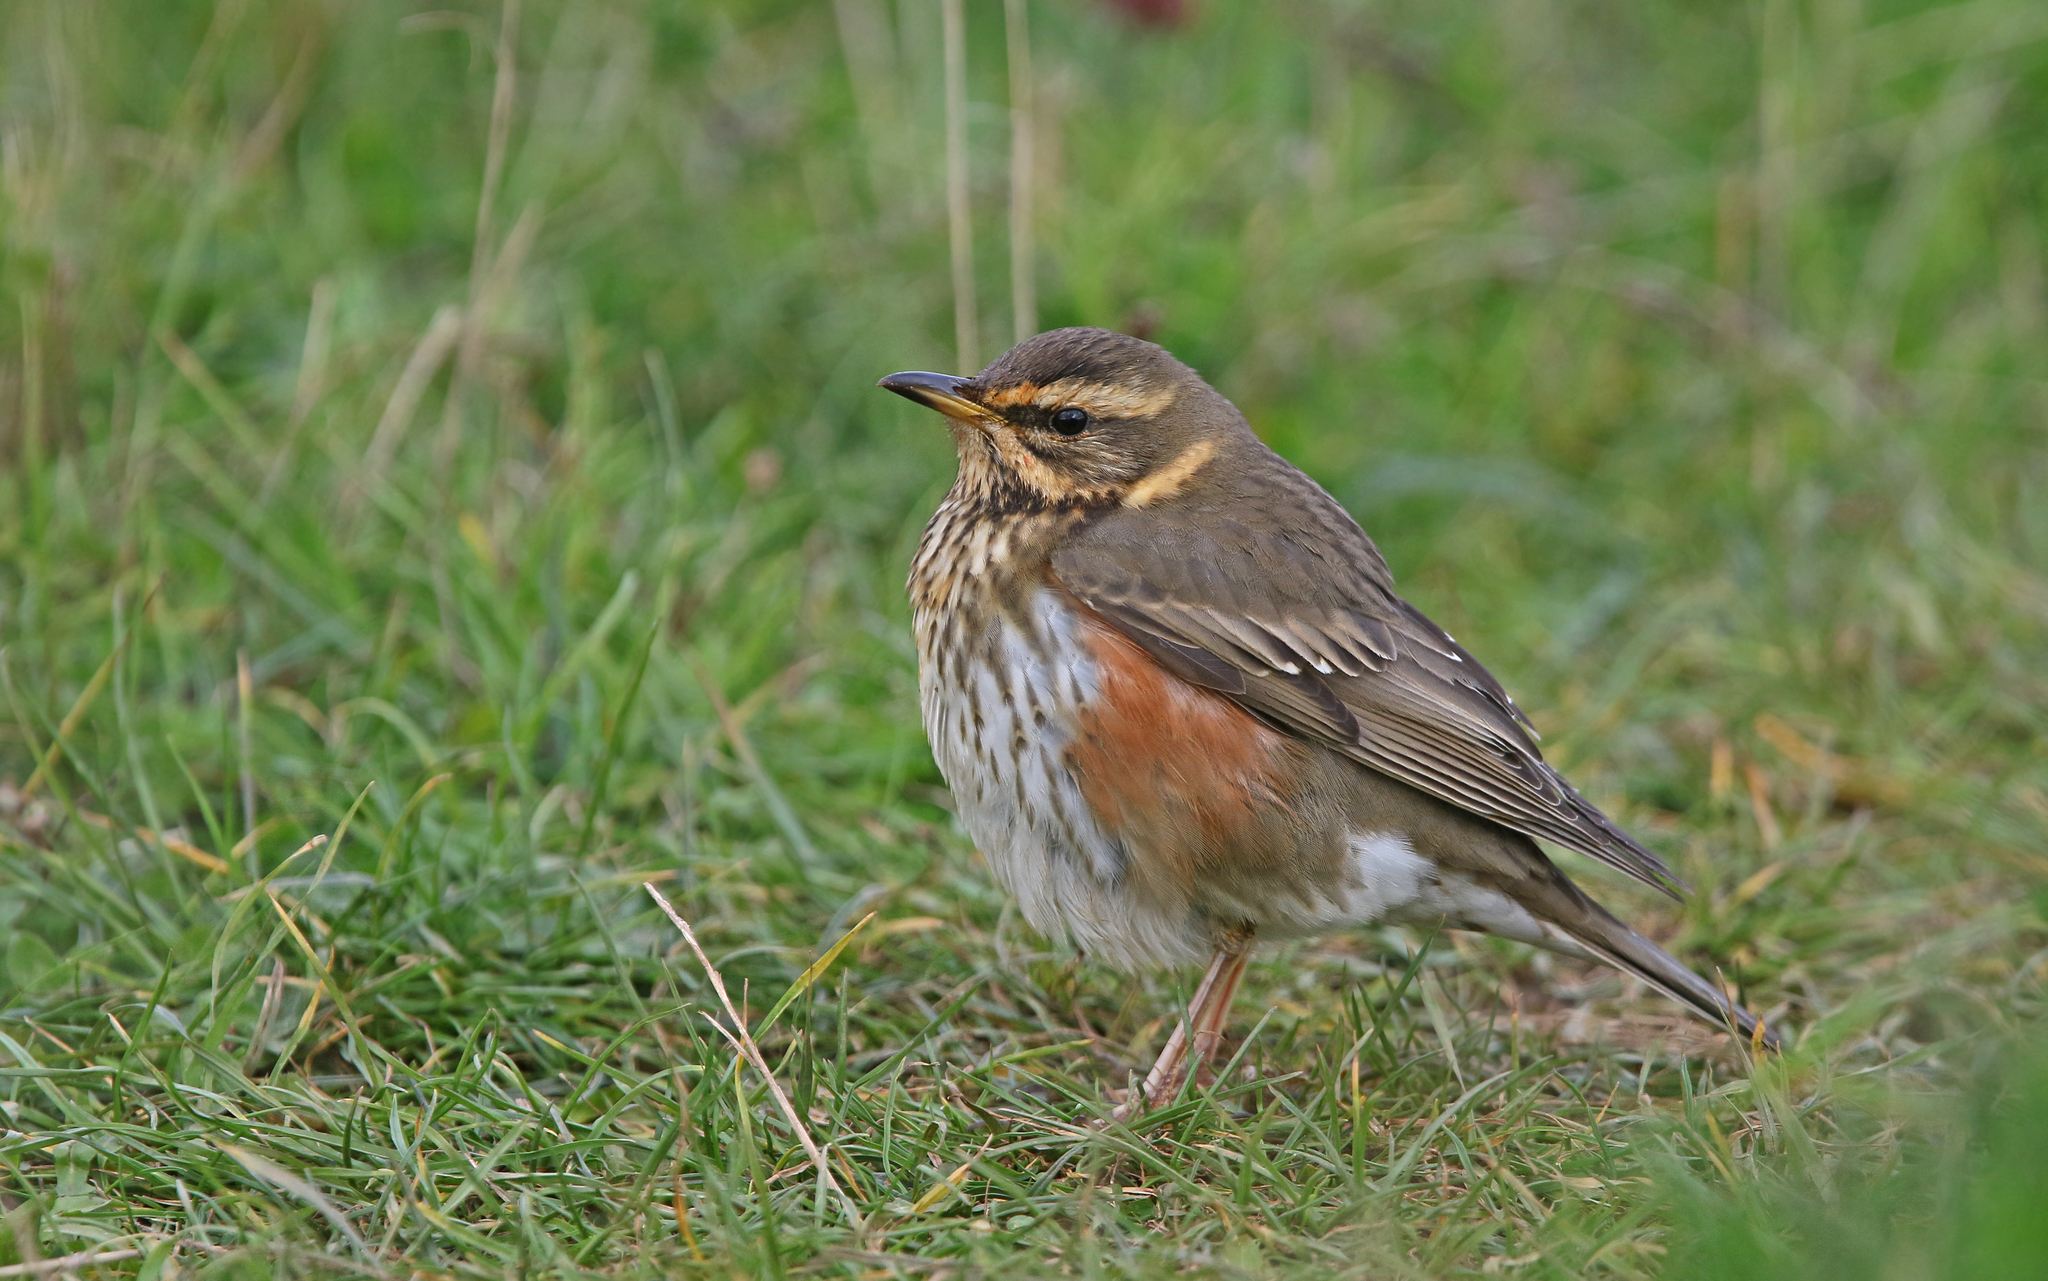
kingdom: Animalia
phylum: Chordata
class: Aves
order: Passeriformes
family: Turdidae
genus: Turdus
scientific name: Turdus iliacus
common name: Redwing
